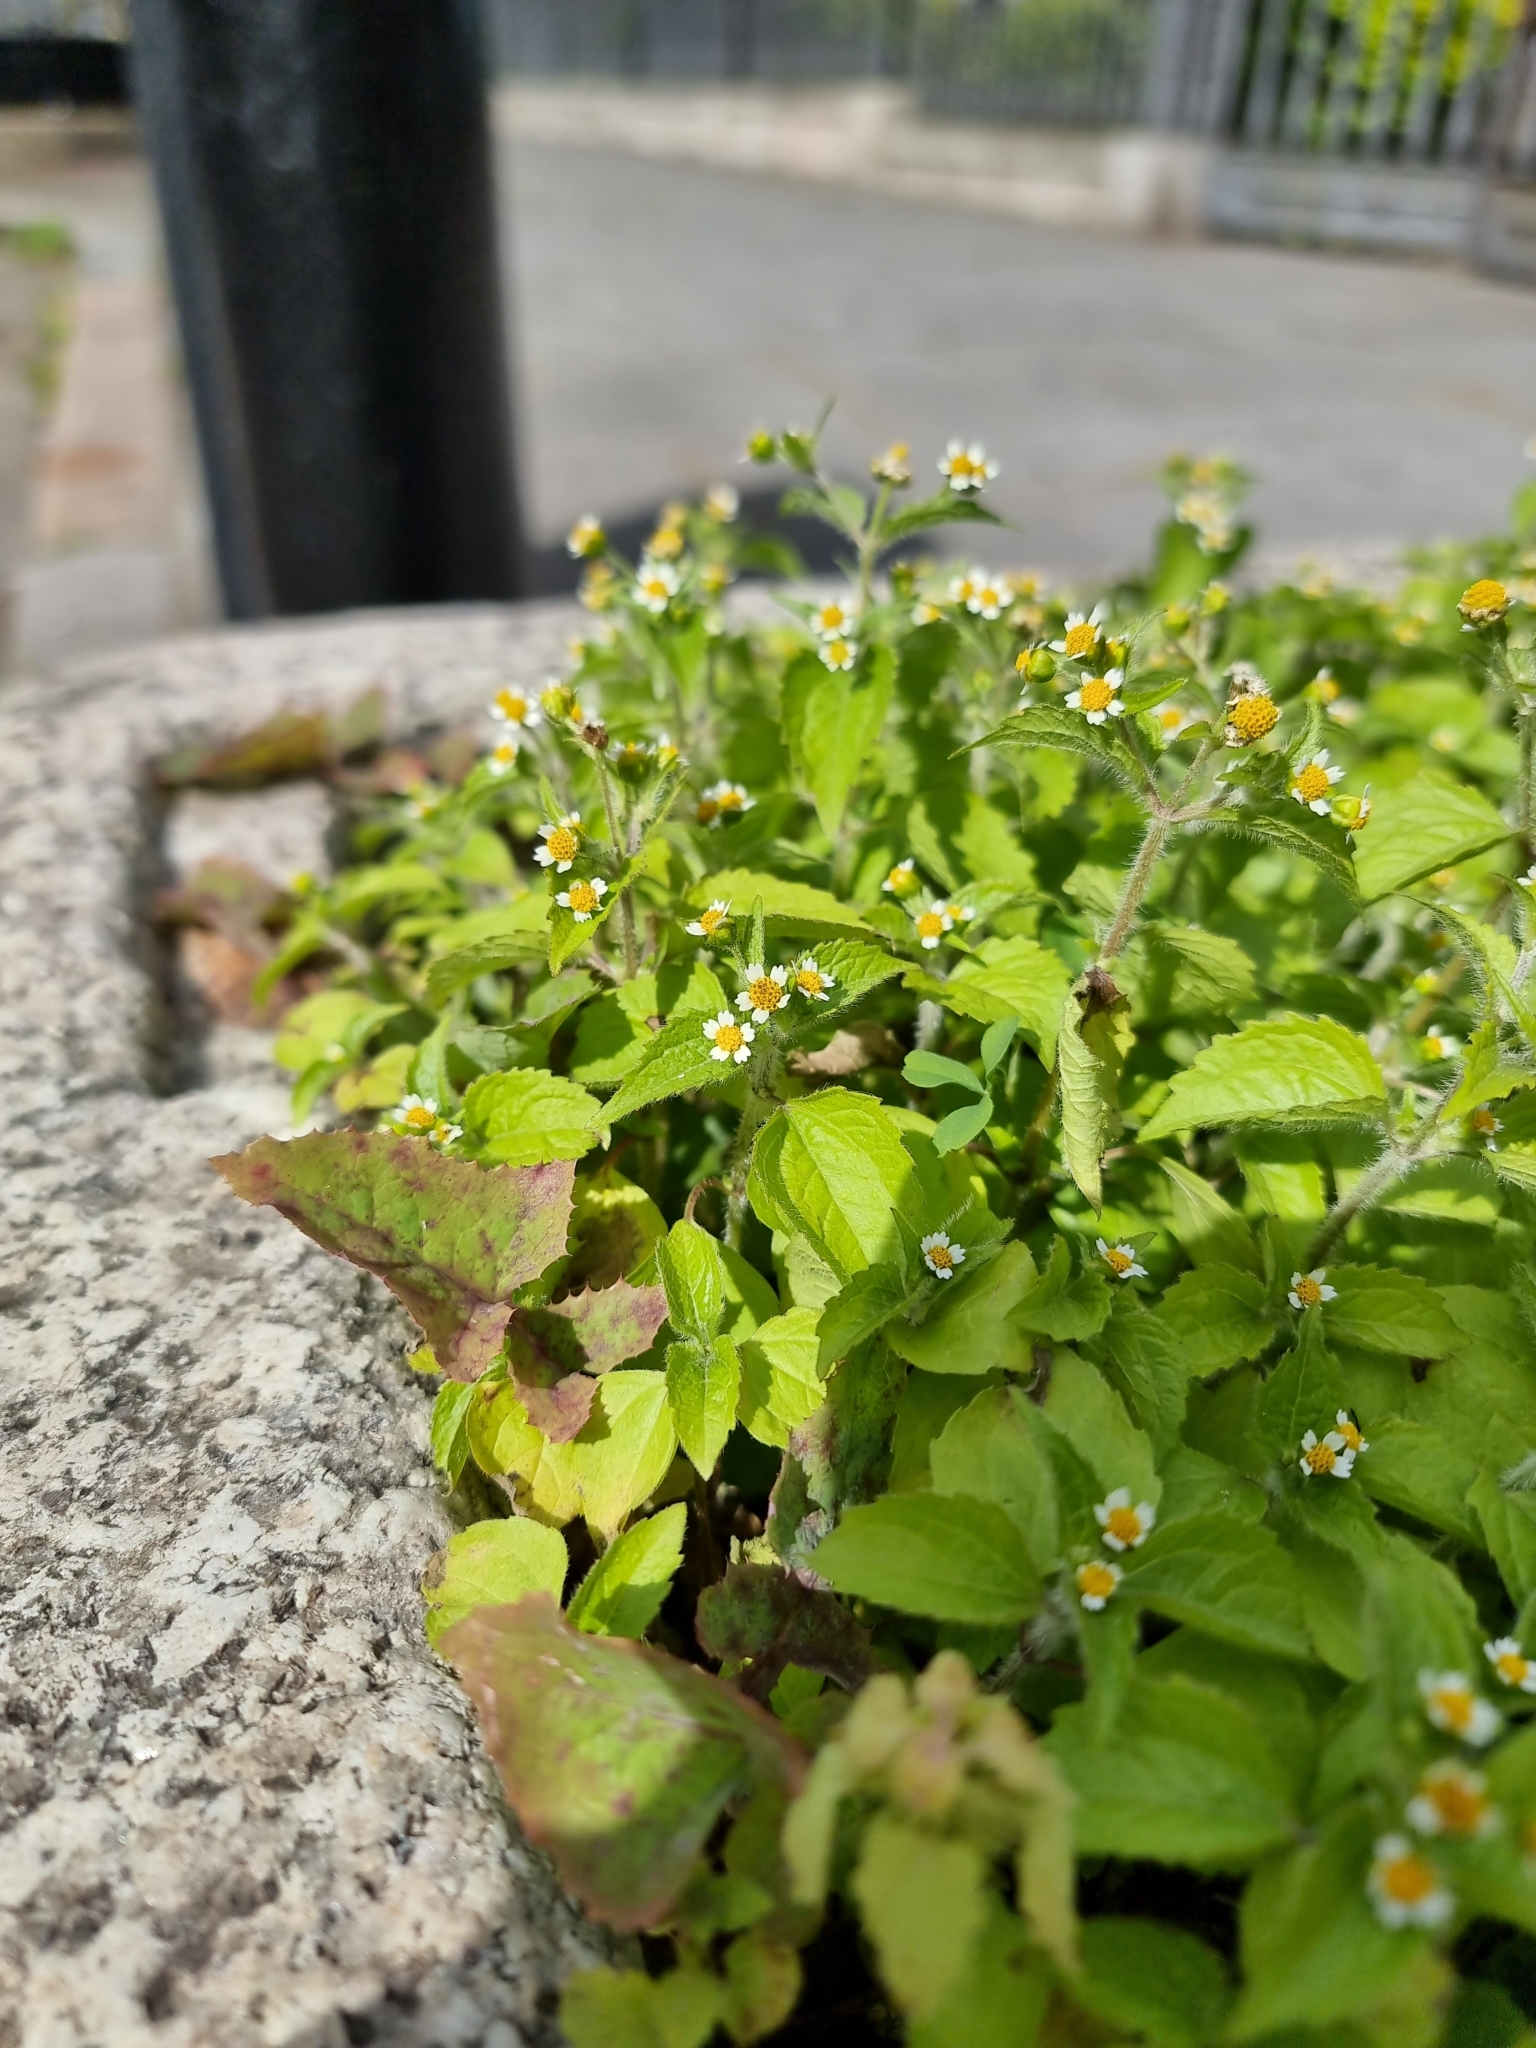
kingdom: Plantae
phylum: Tracheophyta
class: Magnoliopsida
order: Asterales
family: Asteraceae
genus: Galinsoga
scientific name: Galinsoga quadriradiata
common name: Shaggy soldier
